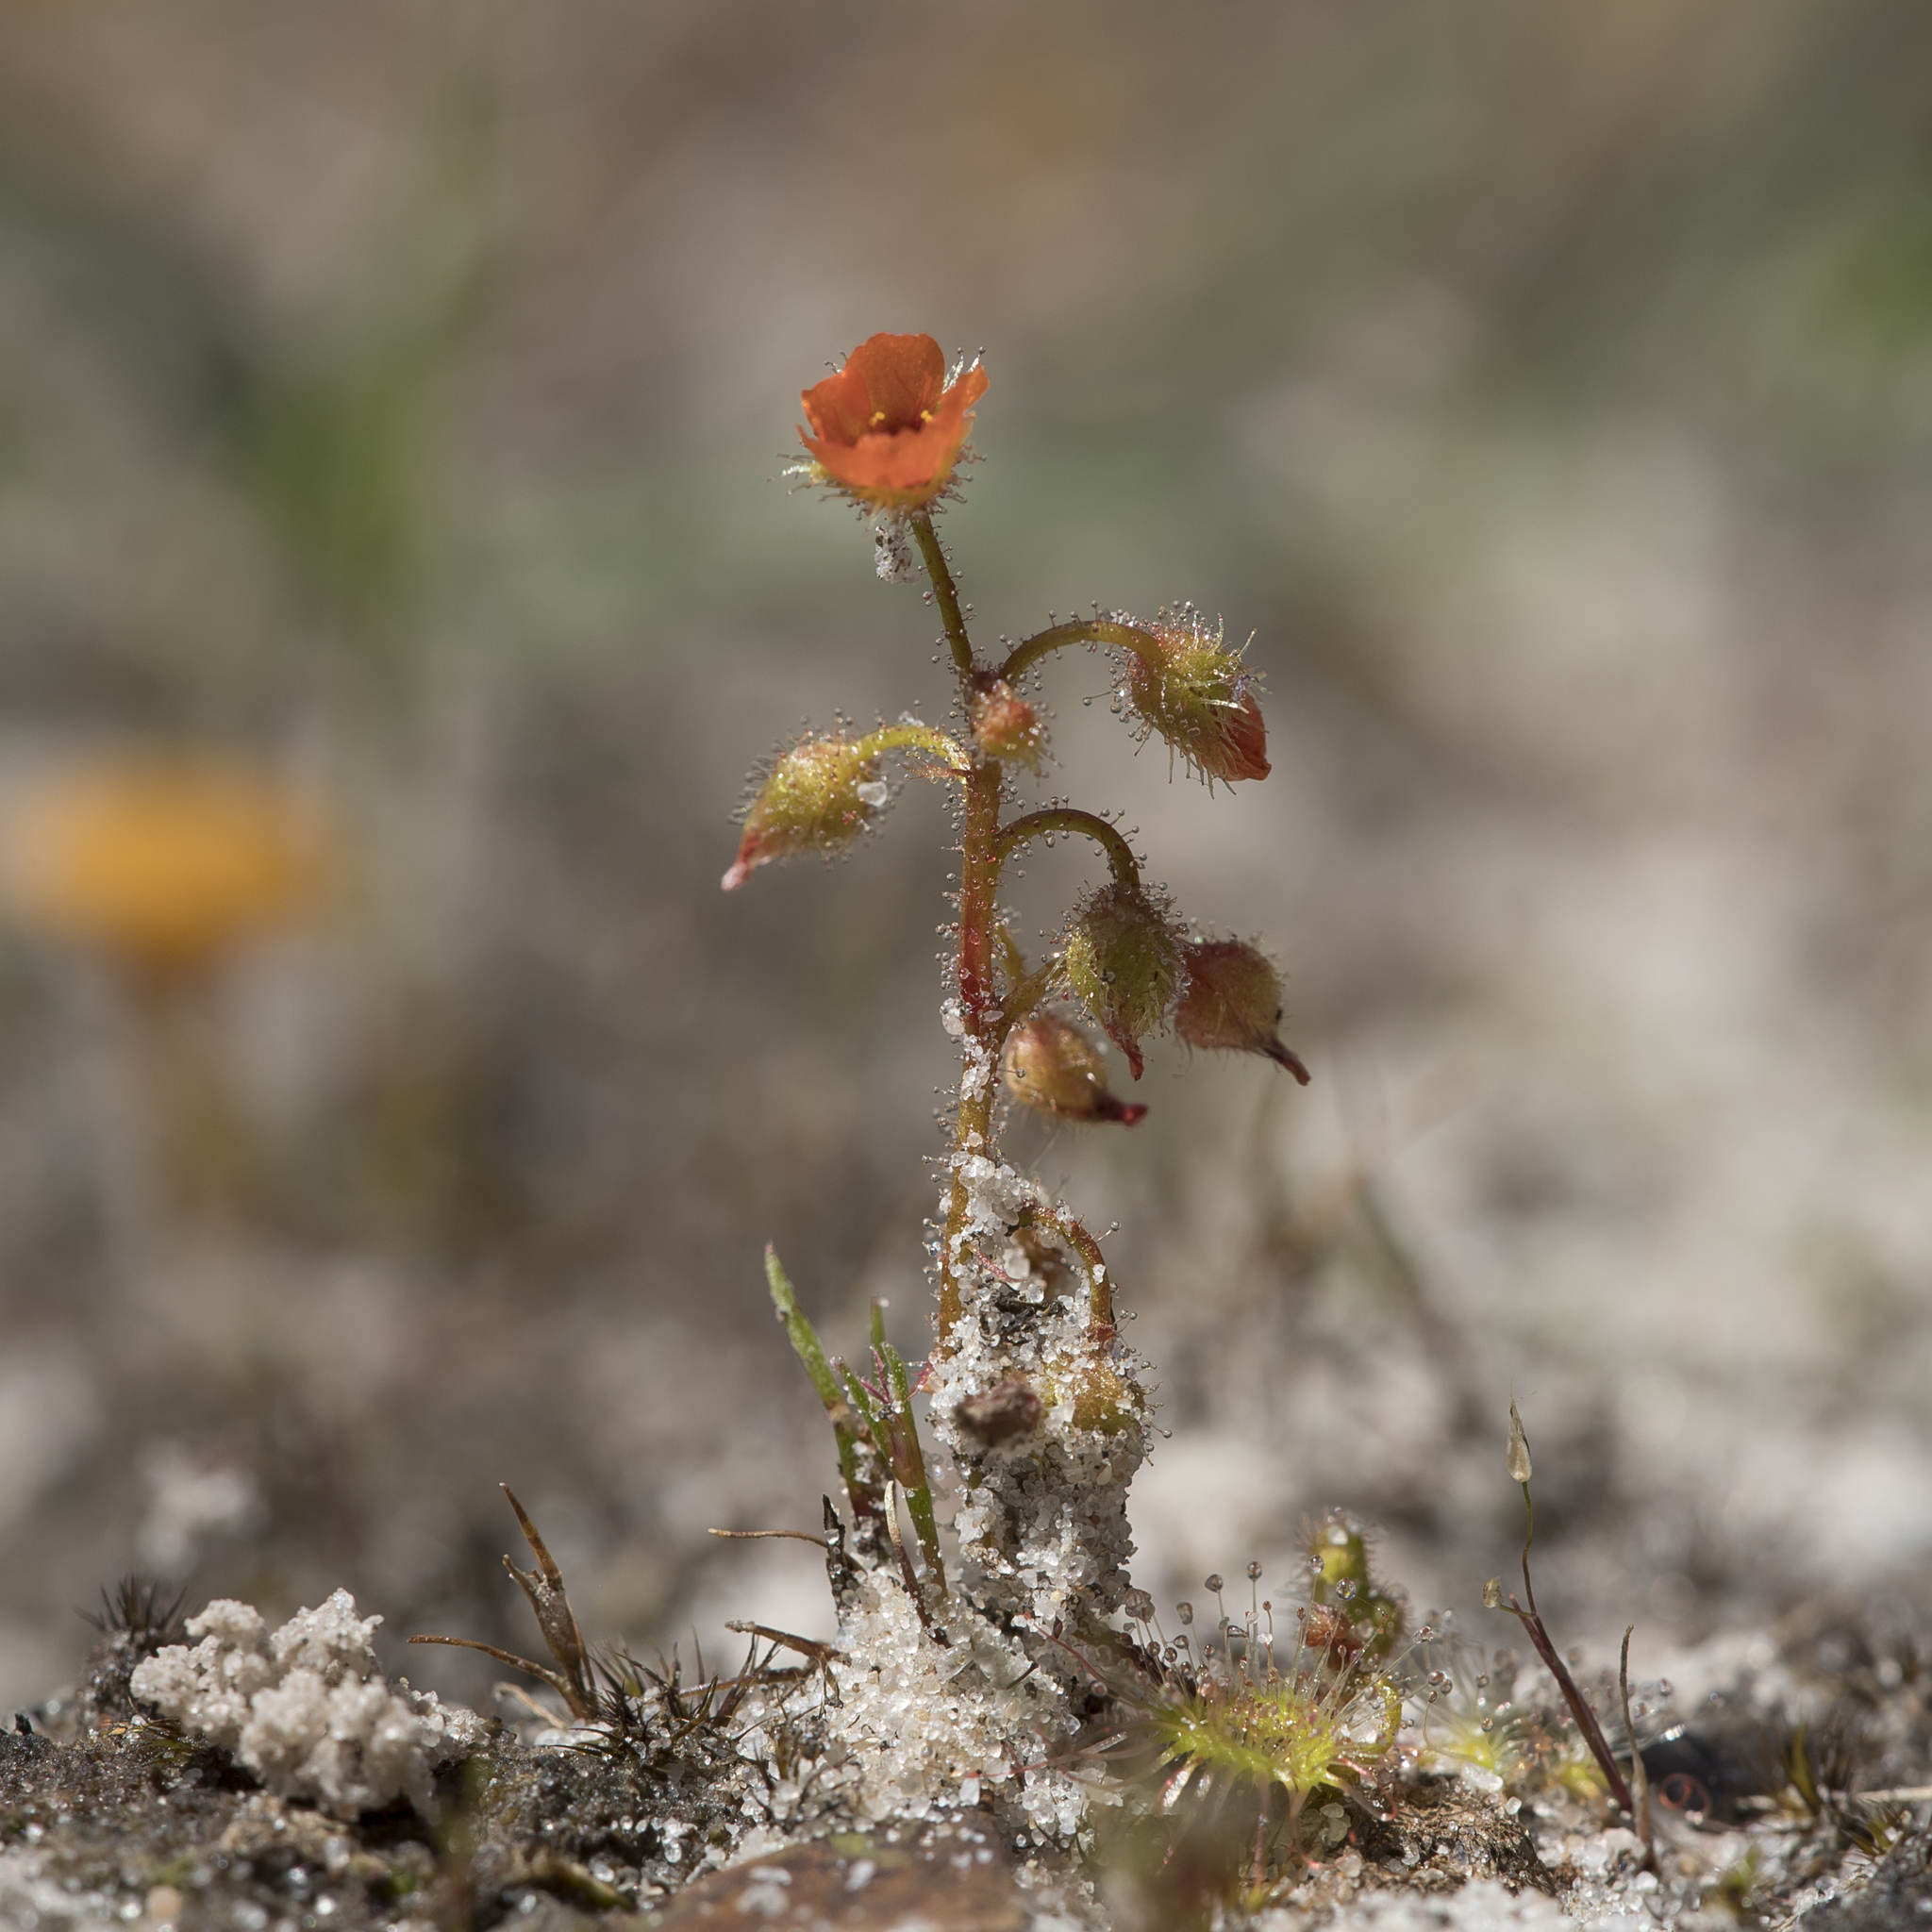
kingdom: Plantae
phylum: Tracheophyta
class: Magnoliopsida
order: Caryophyllales
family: Droseraceae
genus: Drosera
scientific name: Drosera glanduligera
